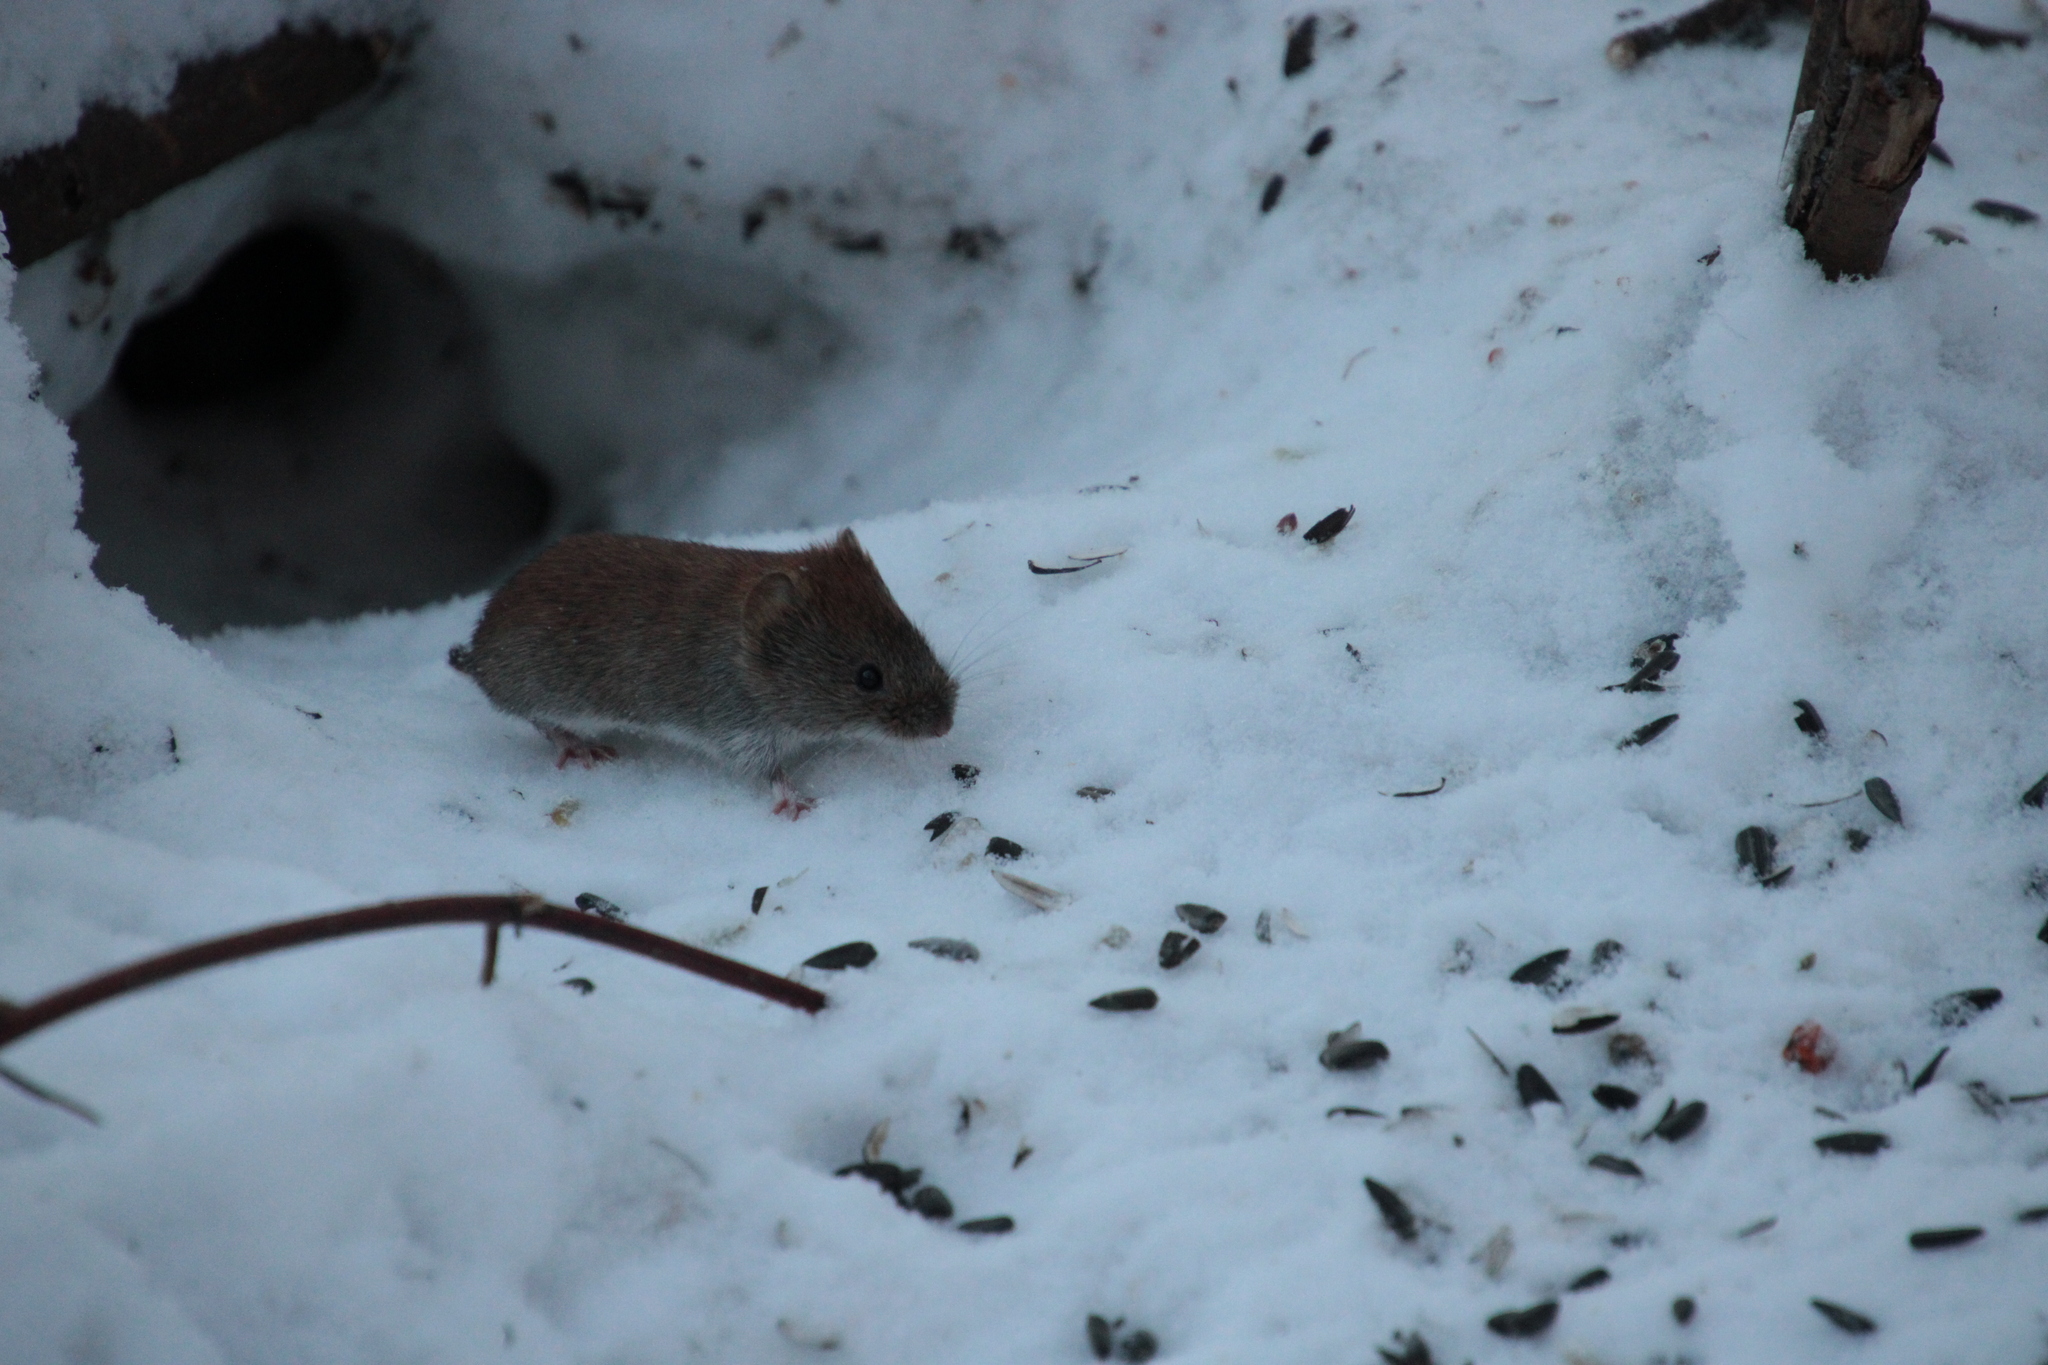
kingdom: Animalia
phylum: Chordata
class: Mammalia
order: Rodentia
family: Cricetidae
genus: Myodes
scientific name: Myodes glareolus
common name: Bank vole
